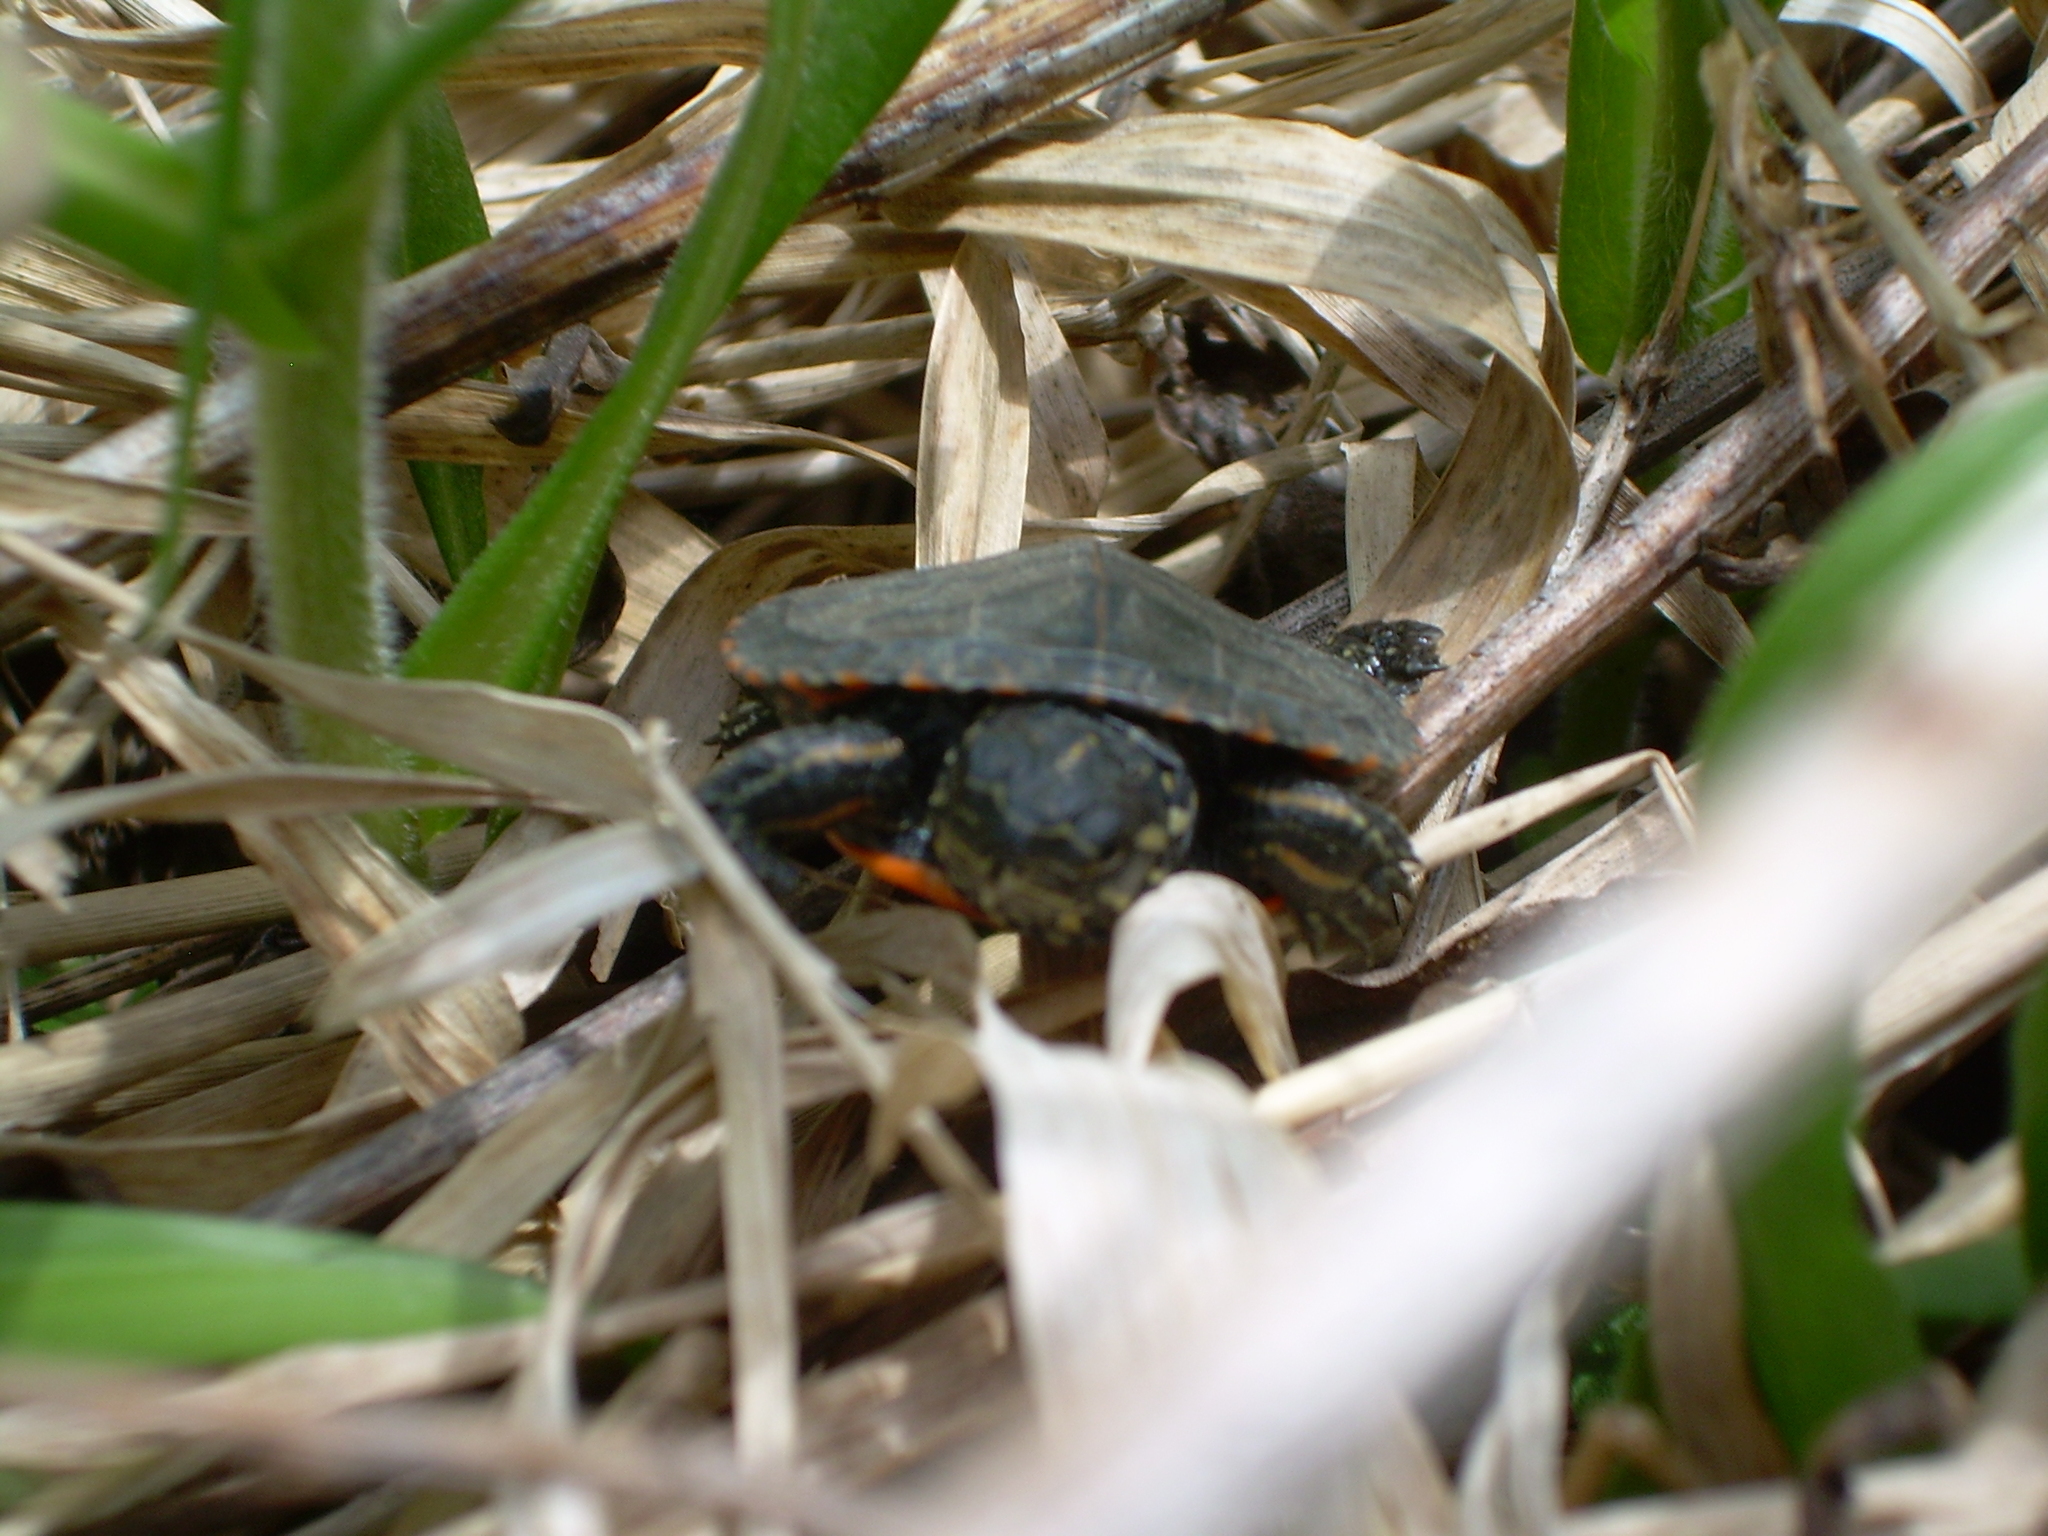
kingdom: Animalia
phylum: Chordata
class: Testudines
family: Emydidae
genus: Chrysemys
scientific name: Chrysemys picta
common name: Painted turtle
